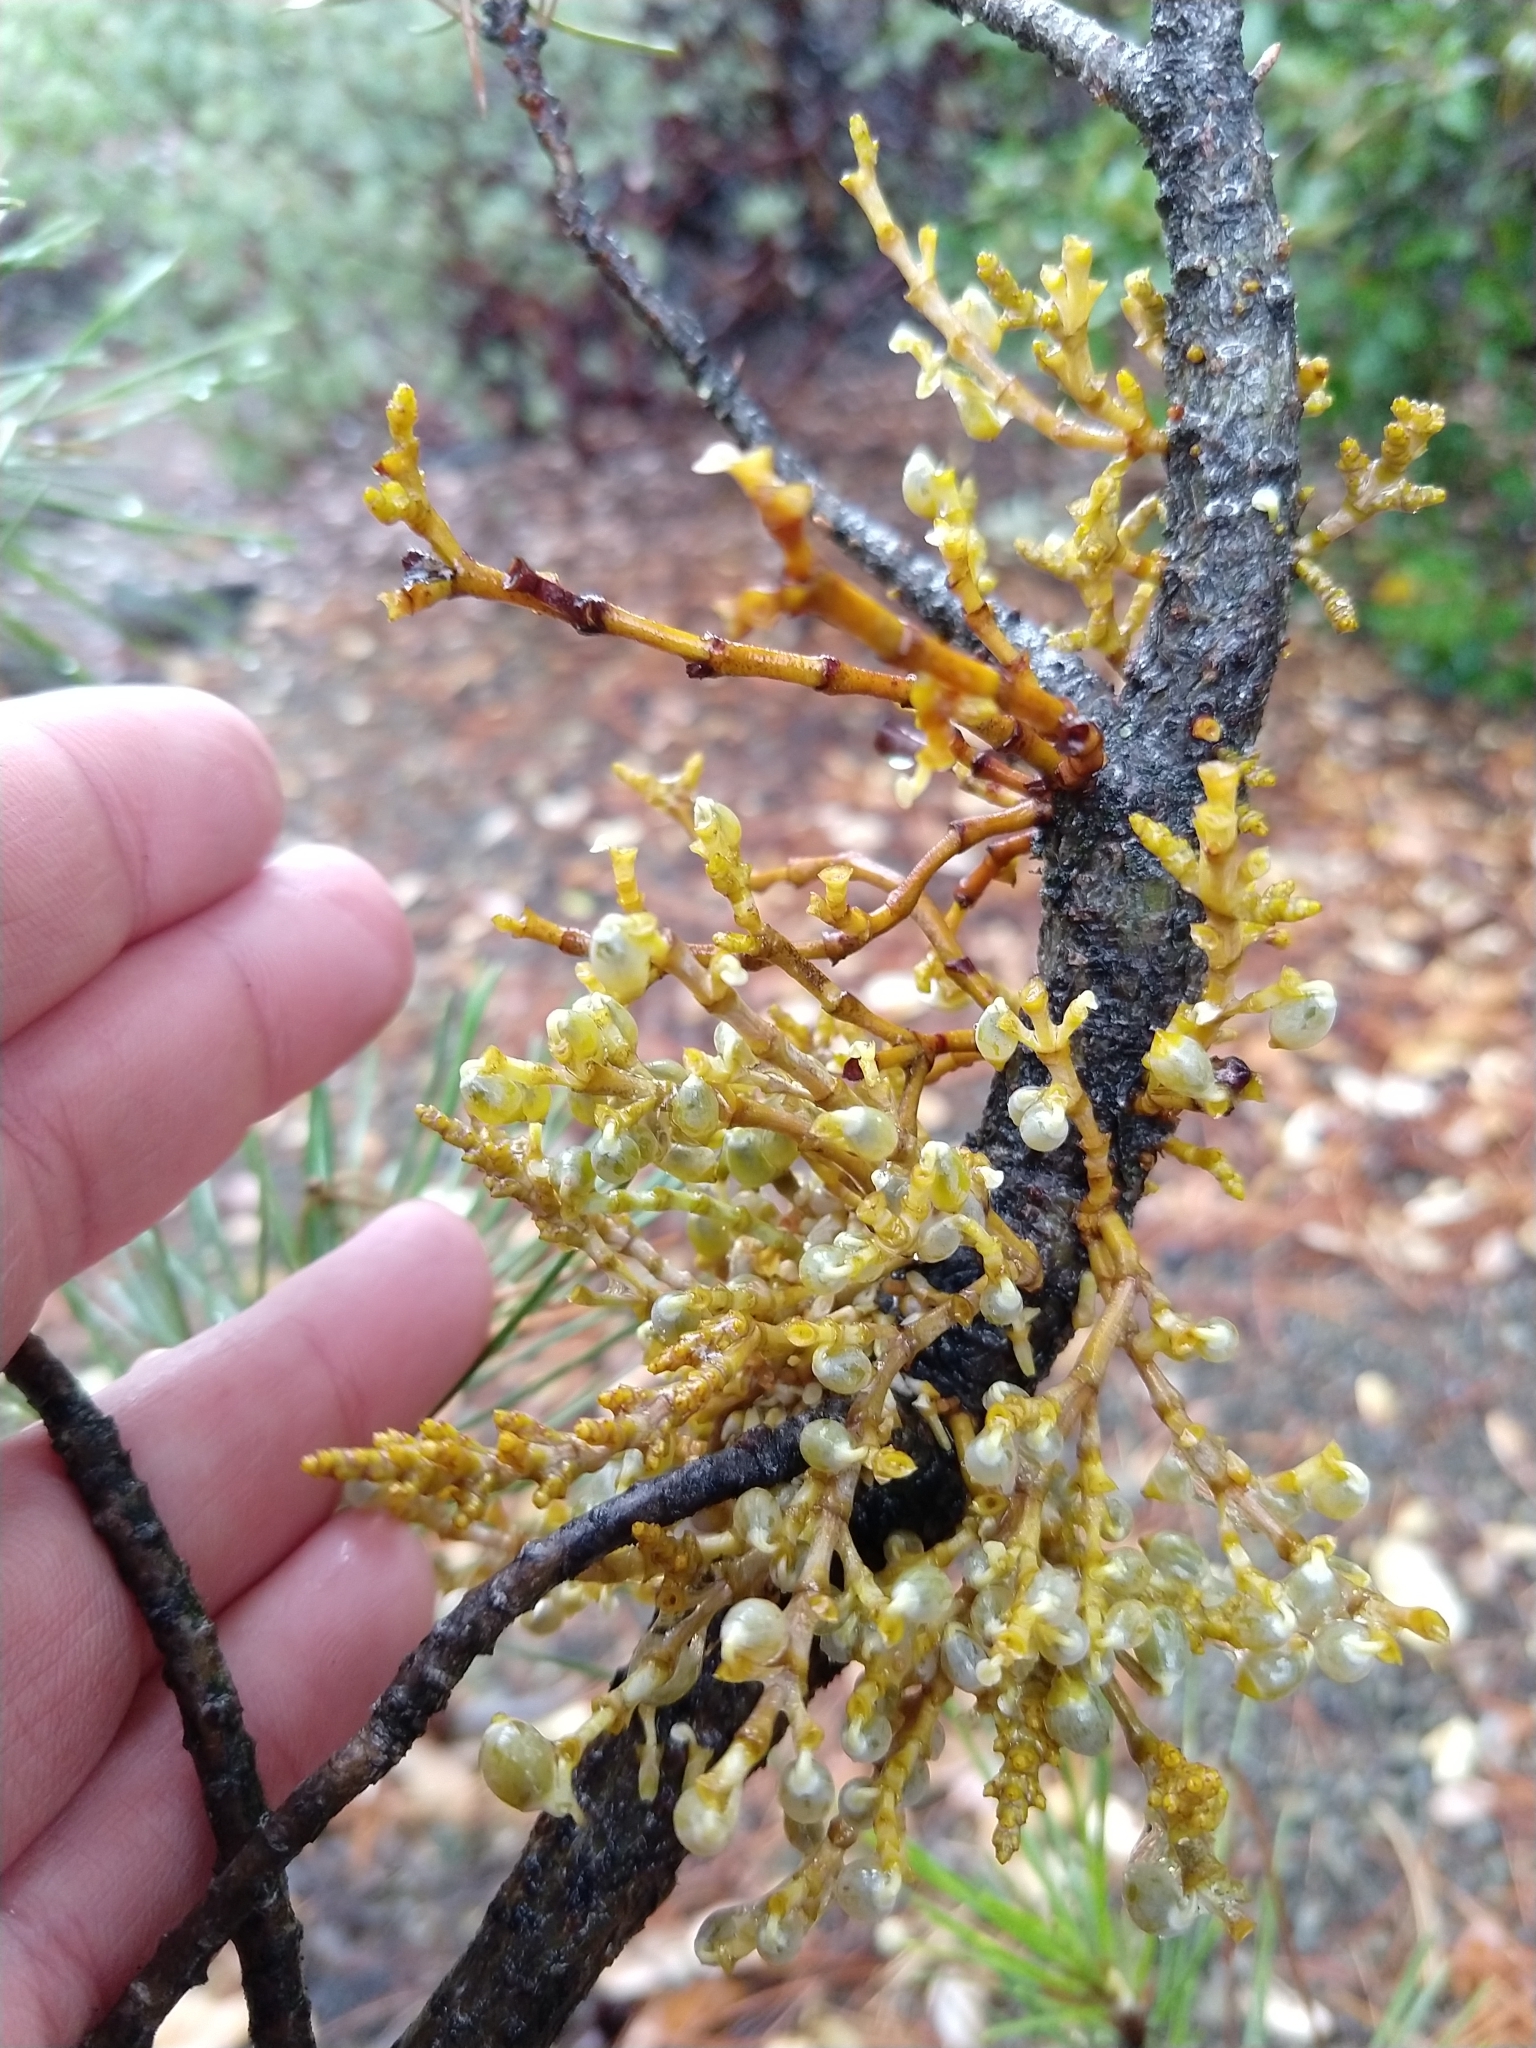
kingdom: Plantae
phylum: Tracheophyta
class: Magnoliopsida
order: Santalales
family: Viscaceae
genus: Arceuthobium
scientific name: Arceuthobium campylopodum
